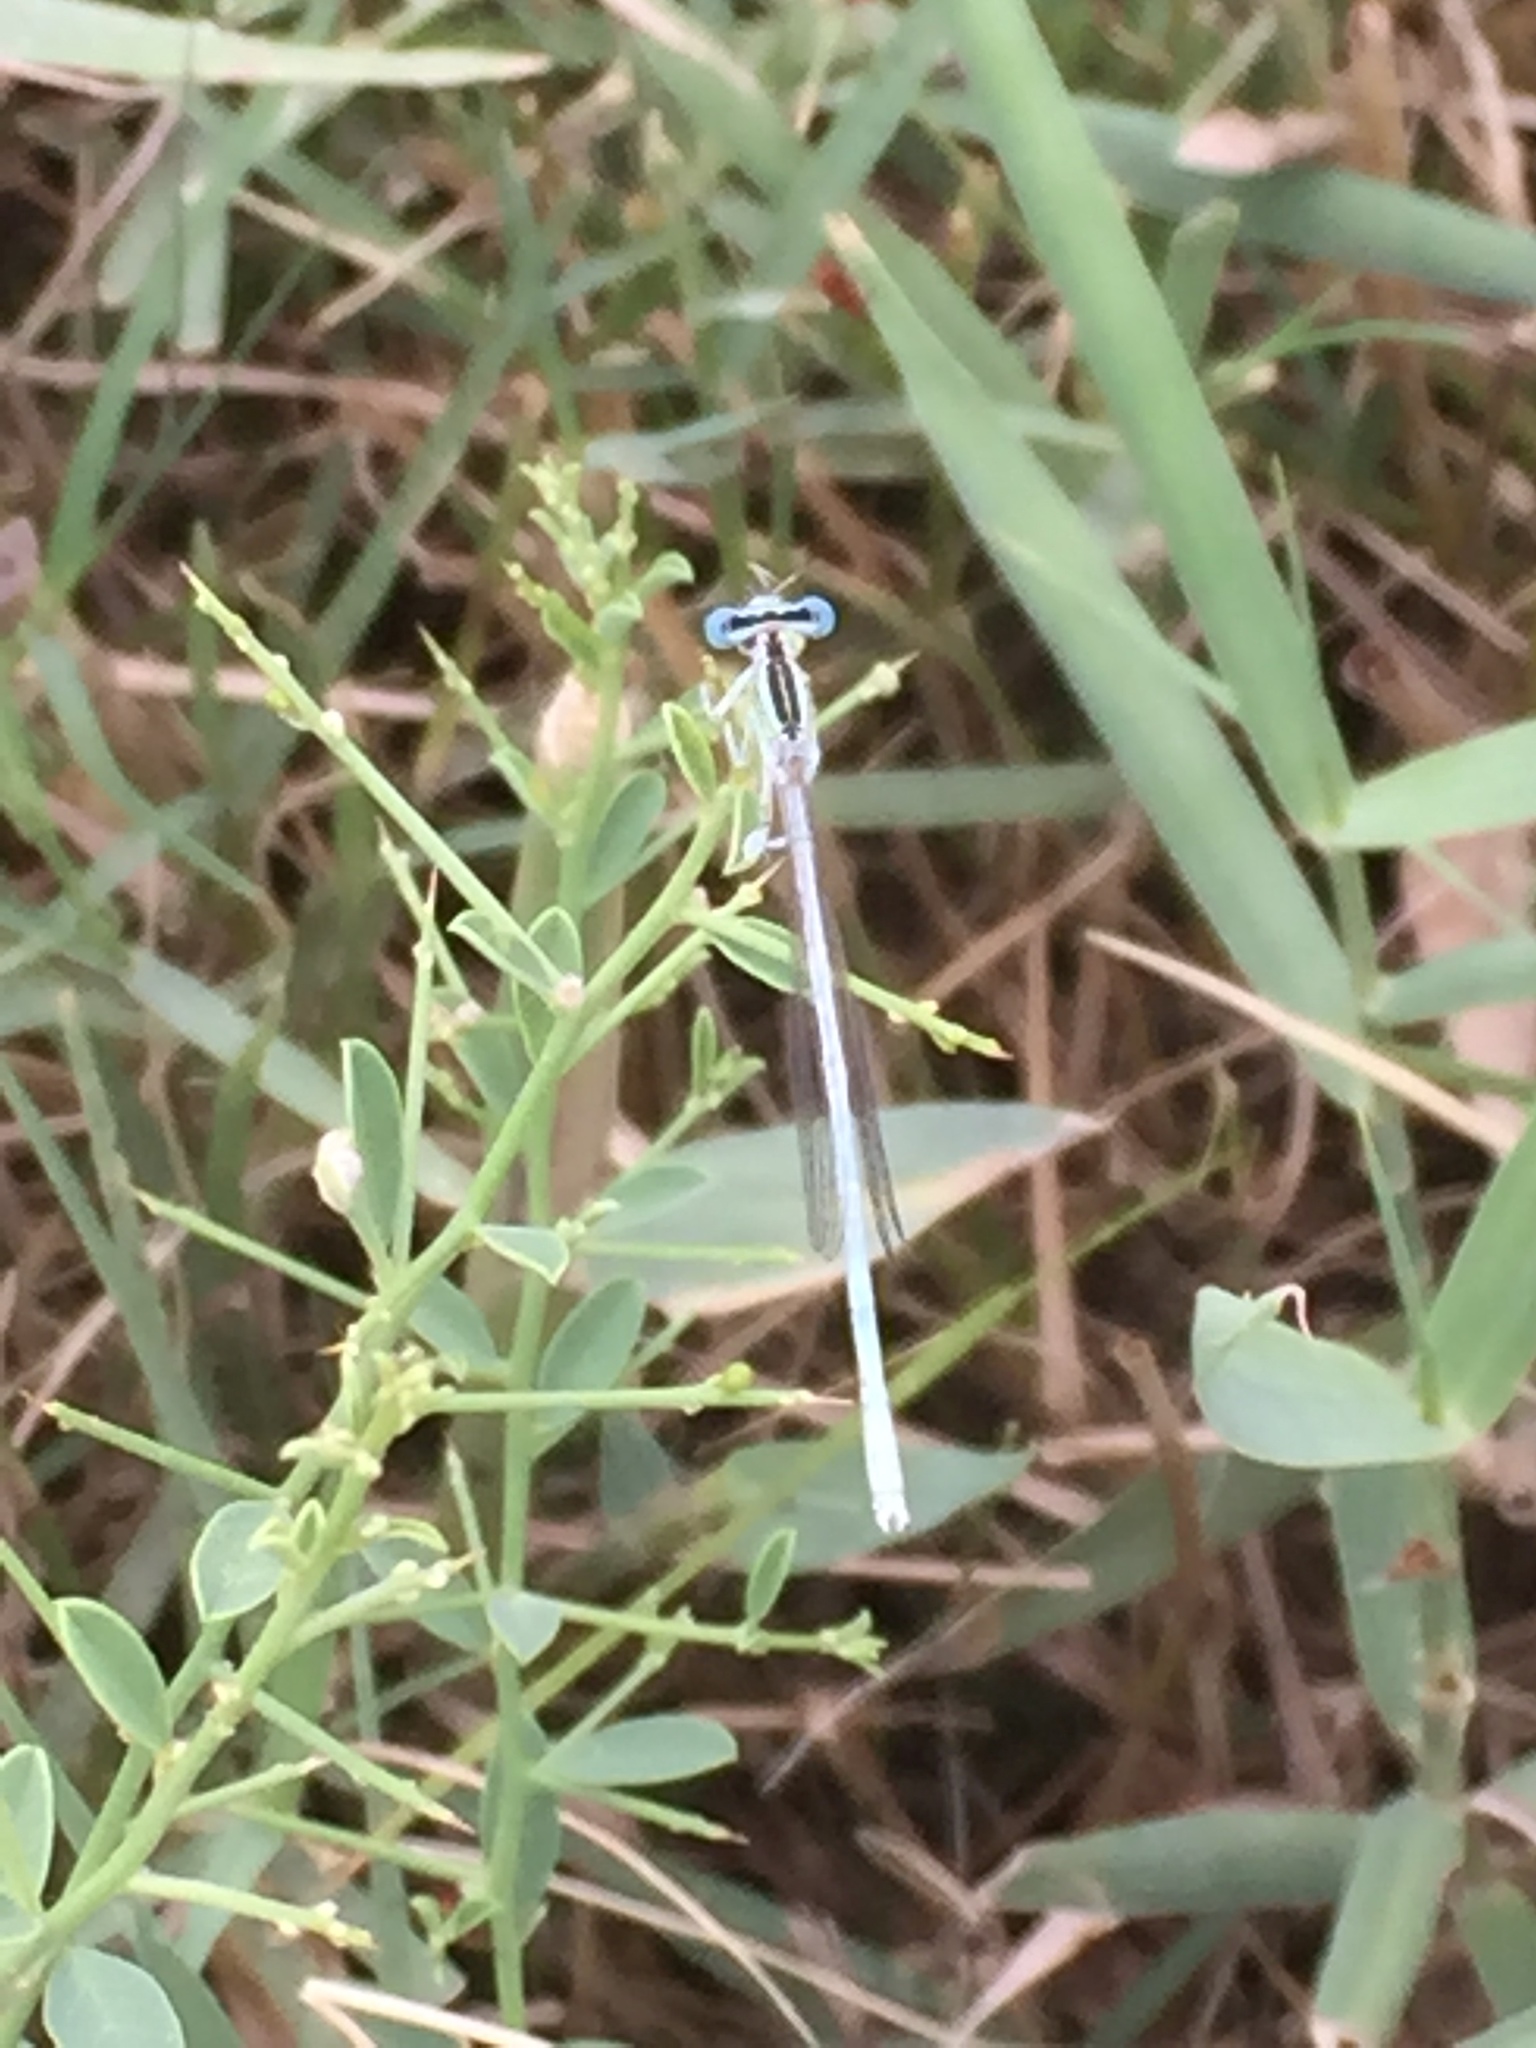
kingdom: Animalia
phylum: Arthropoda
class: Insecta
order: Odonata
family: Platycnemididae
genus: Platycnemis
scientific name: Platycnemis dealbata
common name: Ivory featherleg
